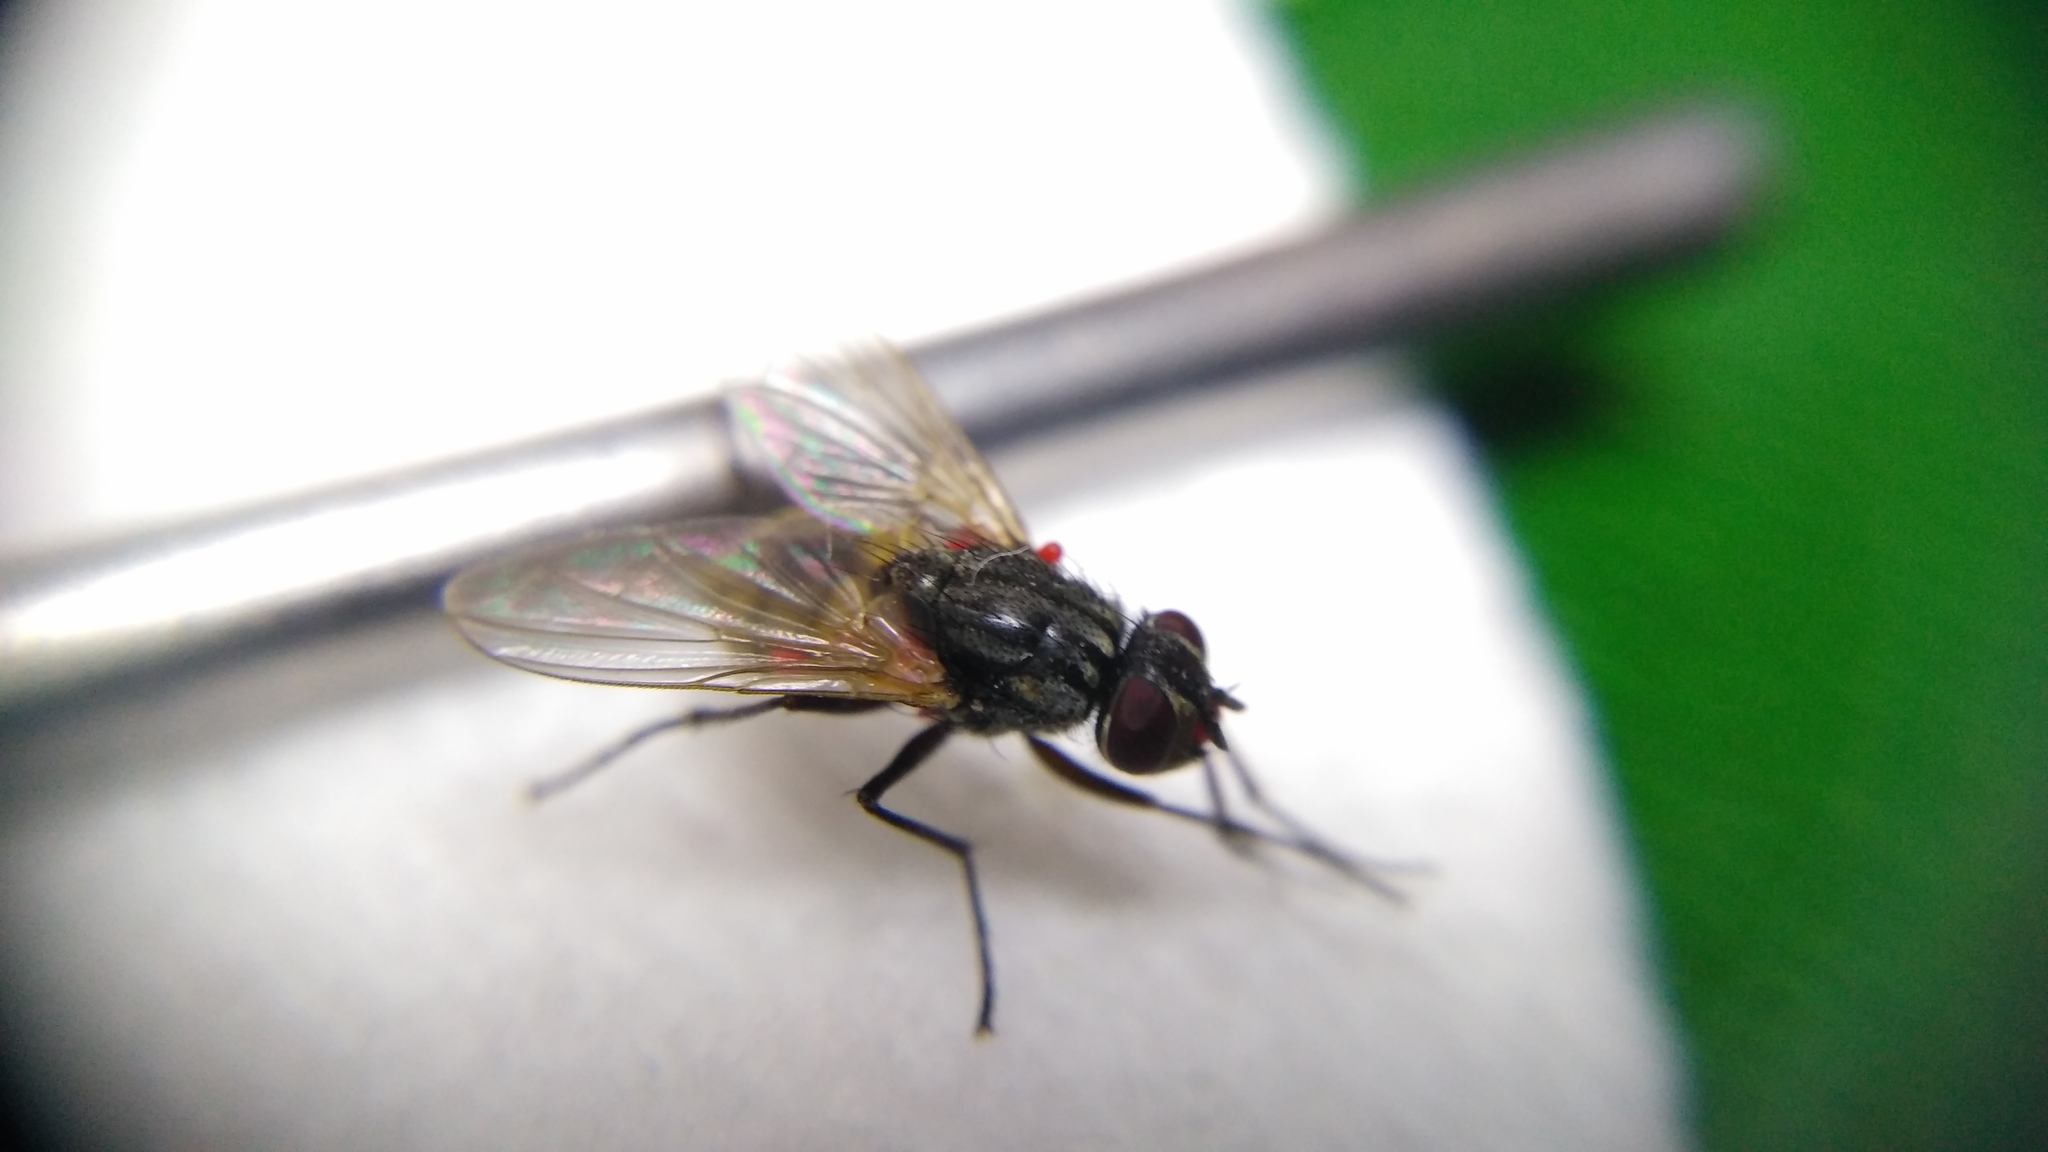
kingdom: Animalia
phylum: Arthropoda
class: Insecta
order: Diptera
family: Muscidae
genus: Musca
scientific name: Musca domestica
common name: House fly
